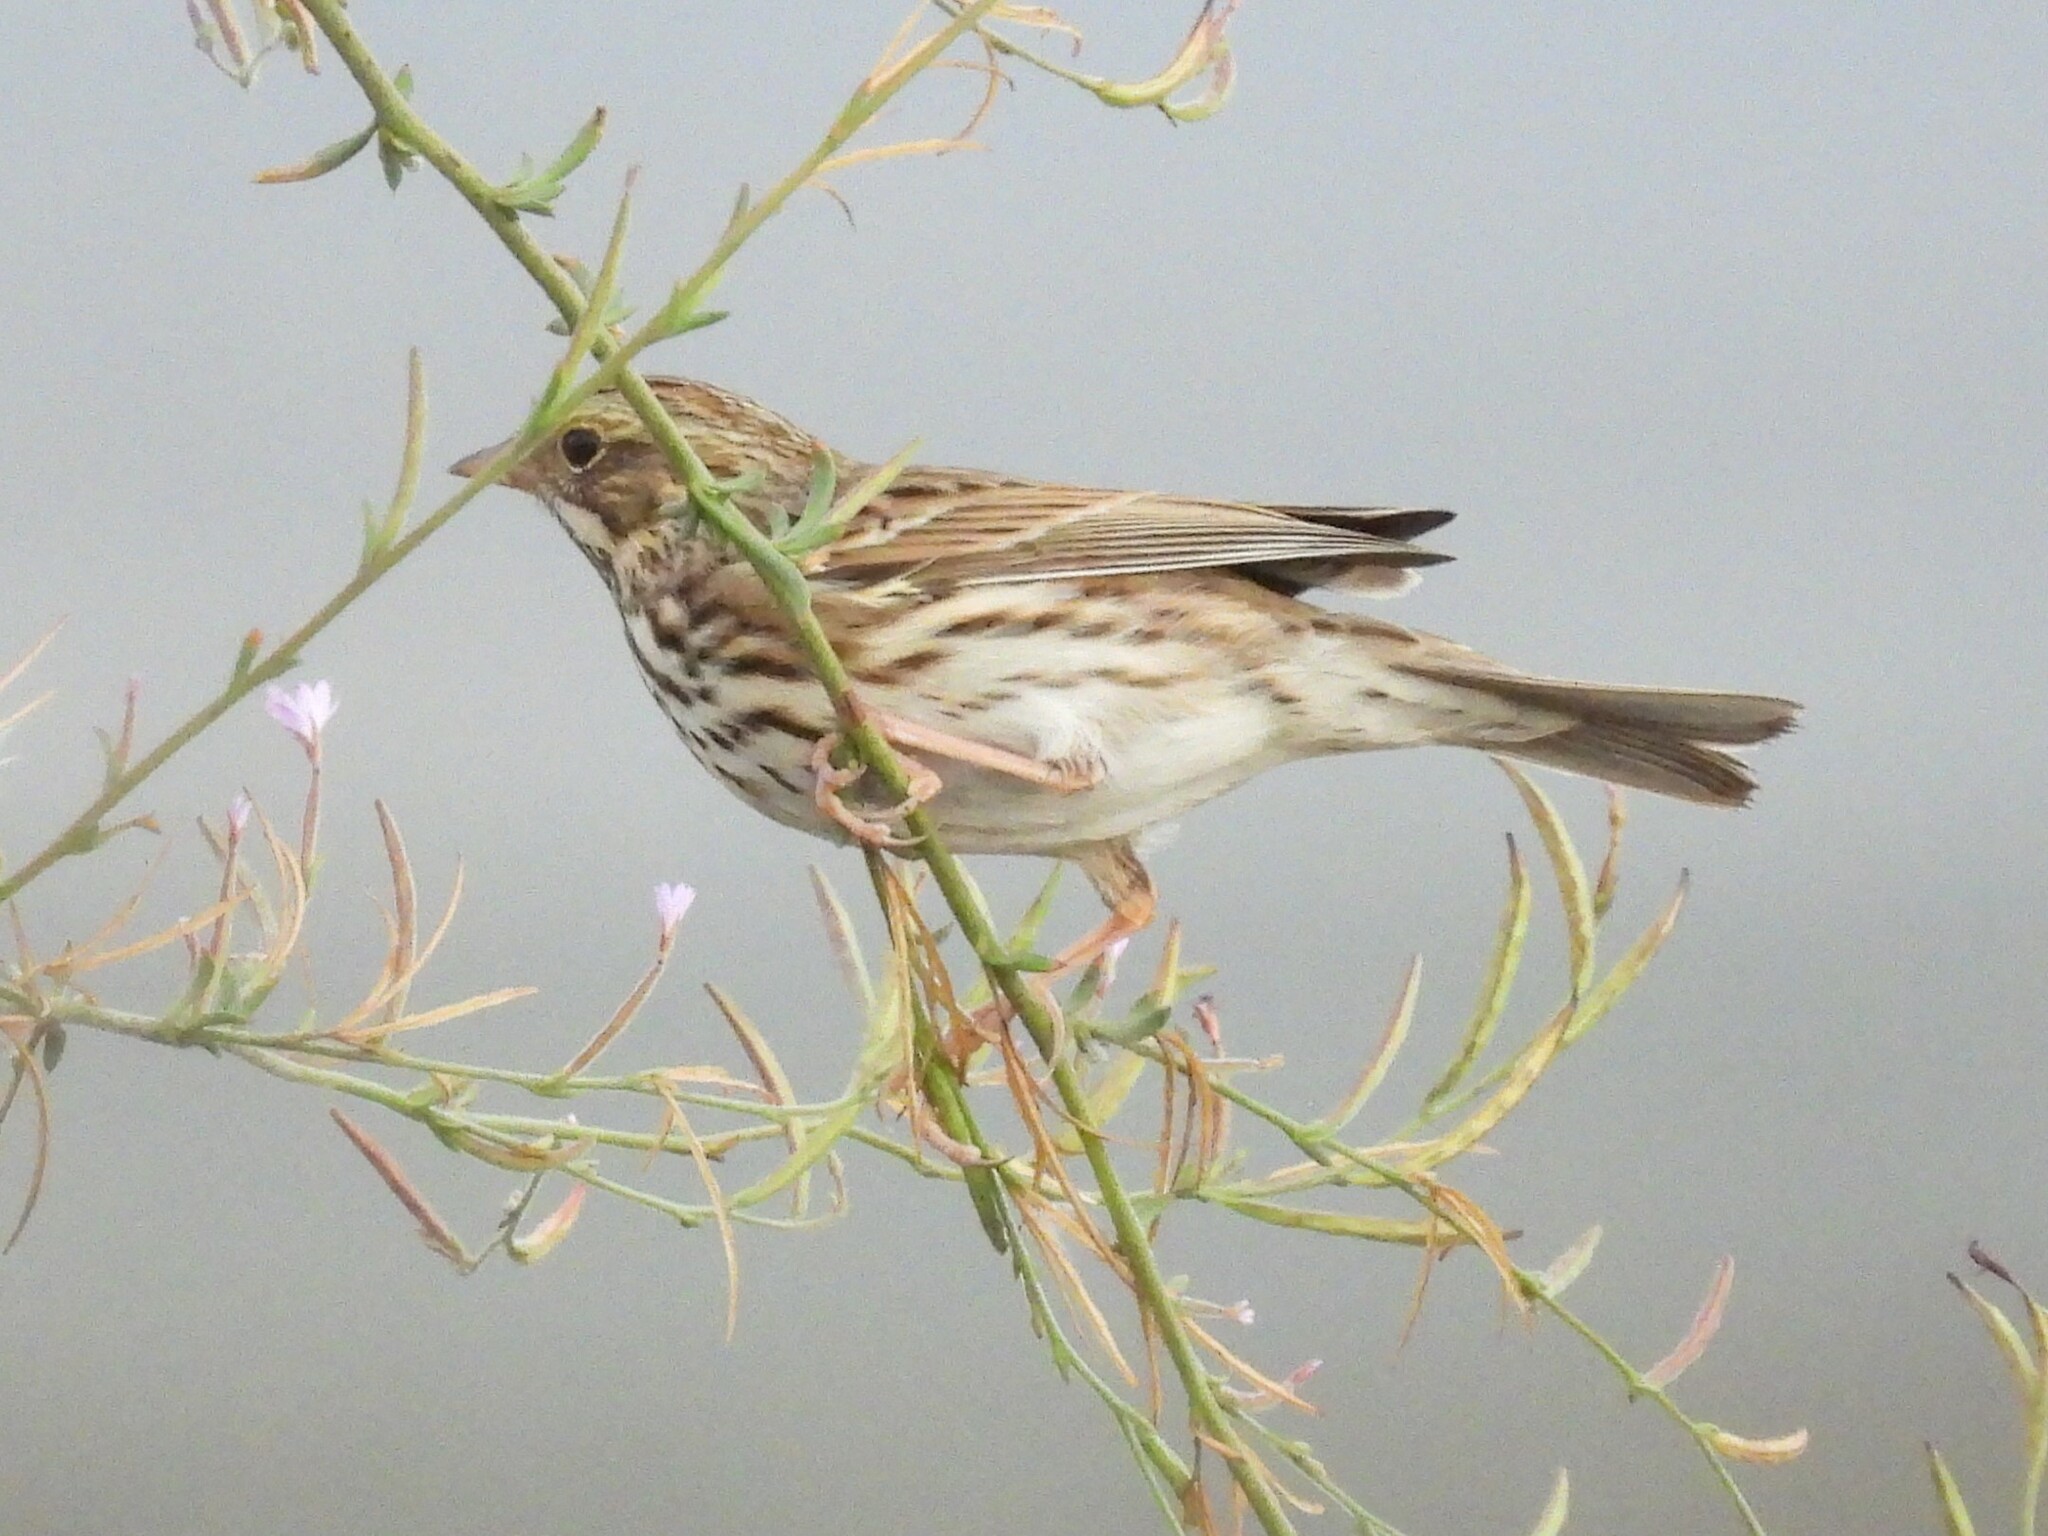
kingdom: Animalia
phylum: Chordata
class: Aves
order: Passeriformes
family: Passerellidae
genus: Passerculus
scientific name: Passerculus sandwichensis
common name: Savannah sparrow
